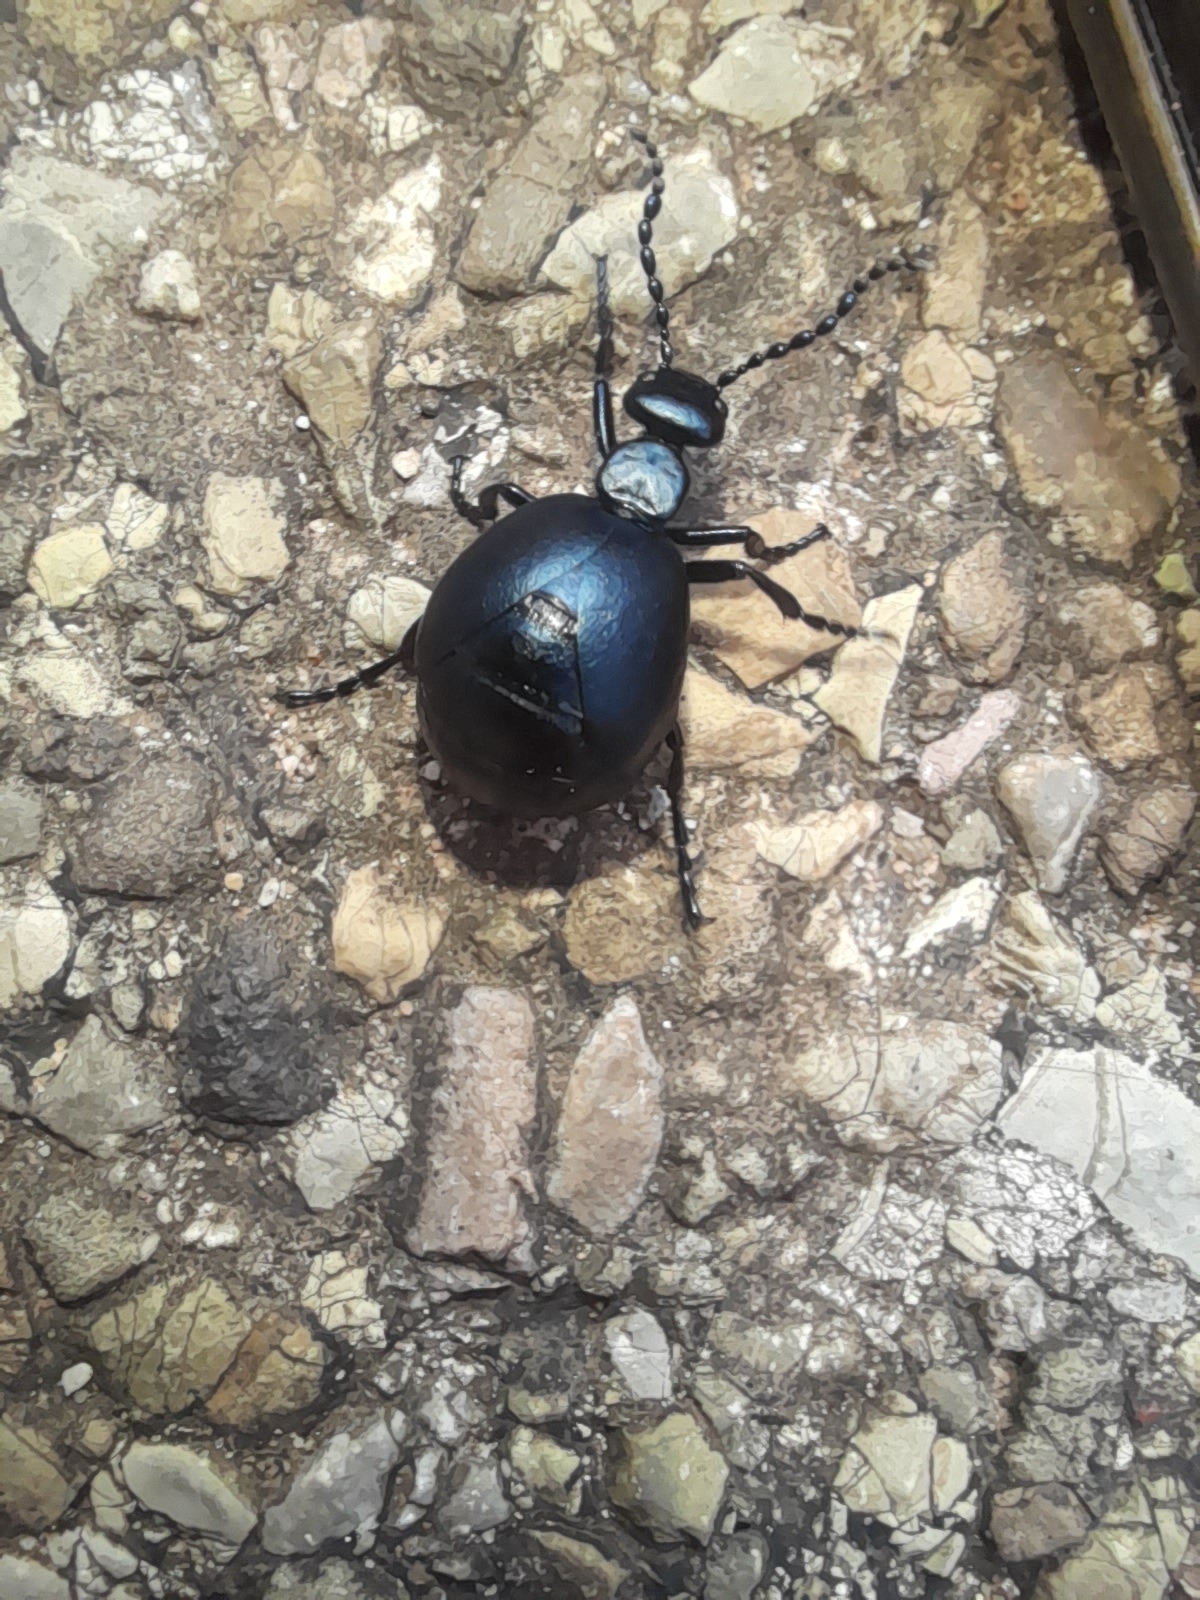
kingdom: Animalia
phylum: Arthropoda
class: Insecta
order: Coleoptera
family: Meloidae
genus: Meloe
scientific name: Meloe autumnalis
